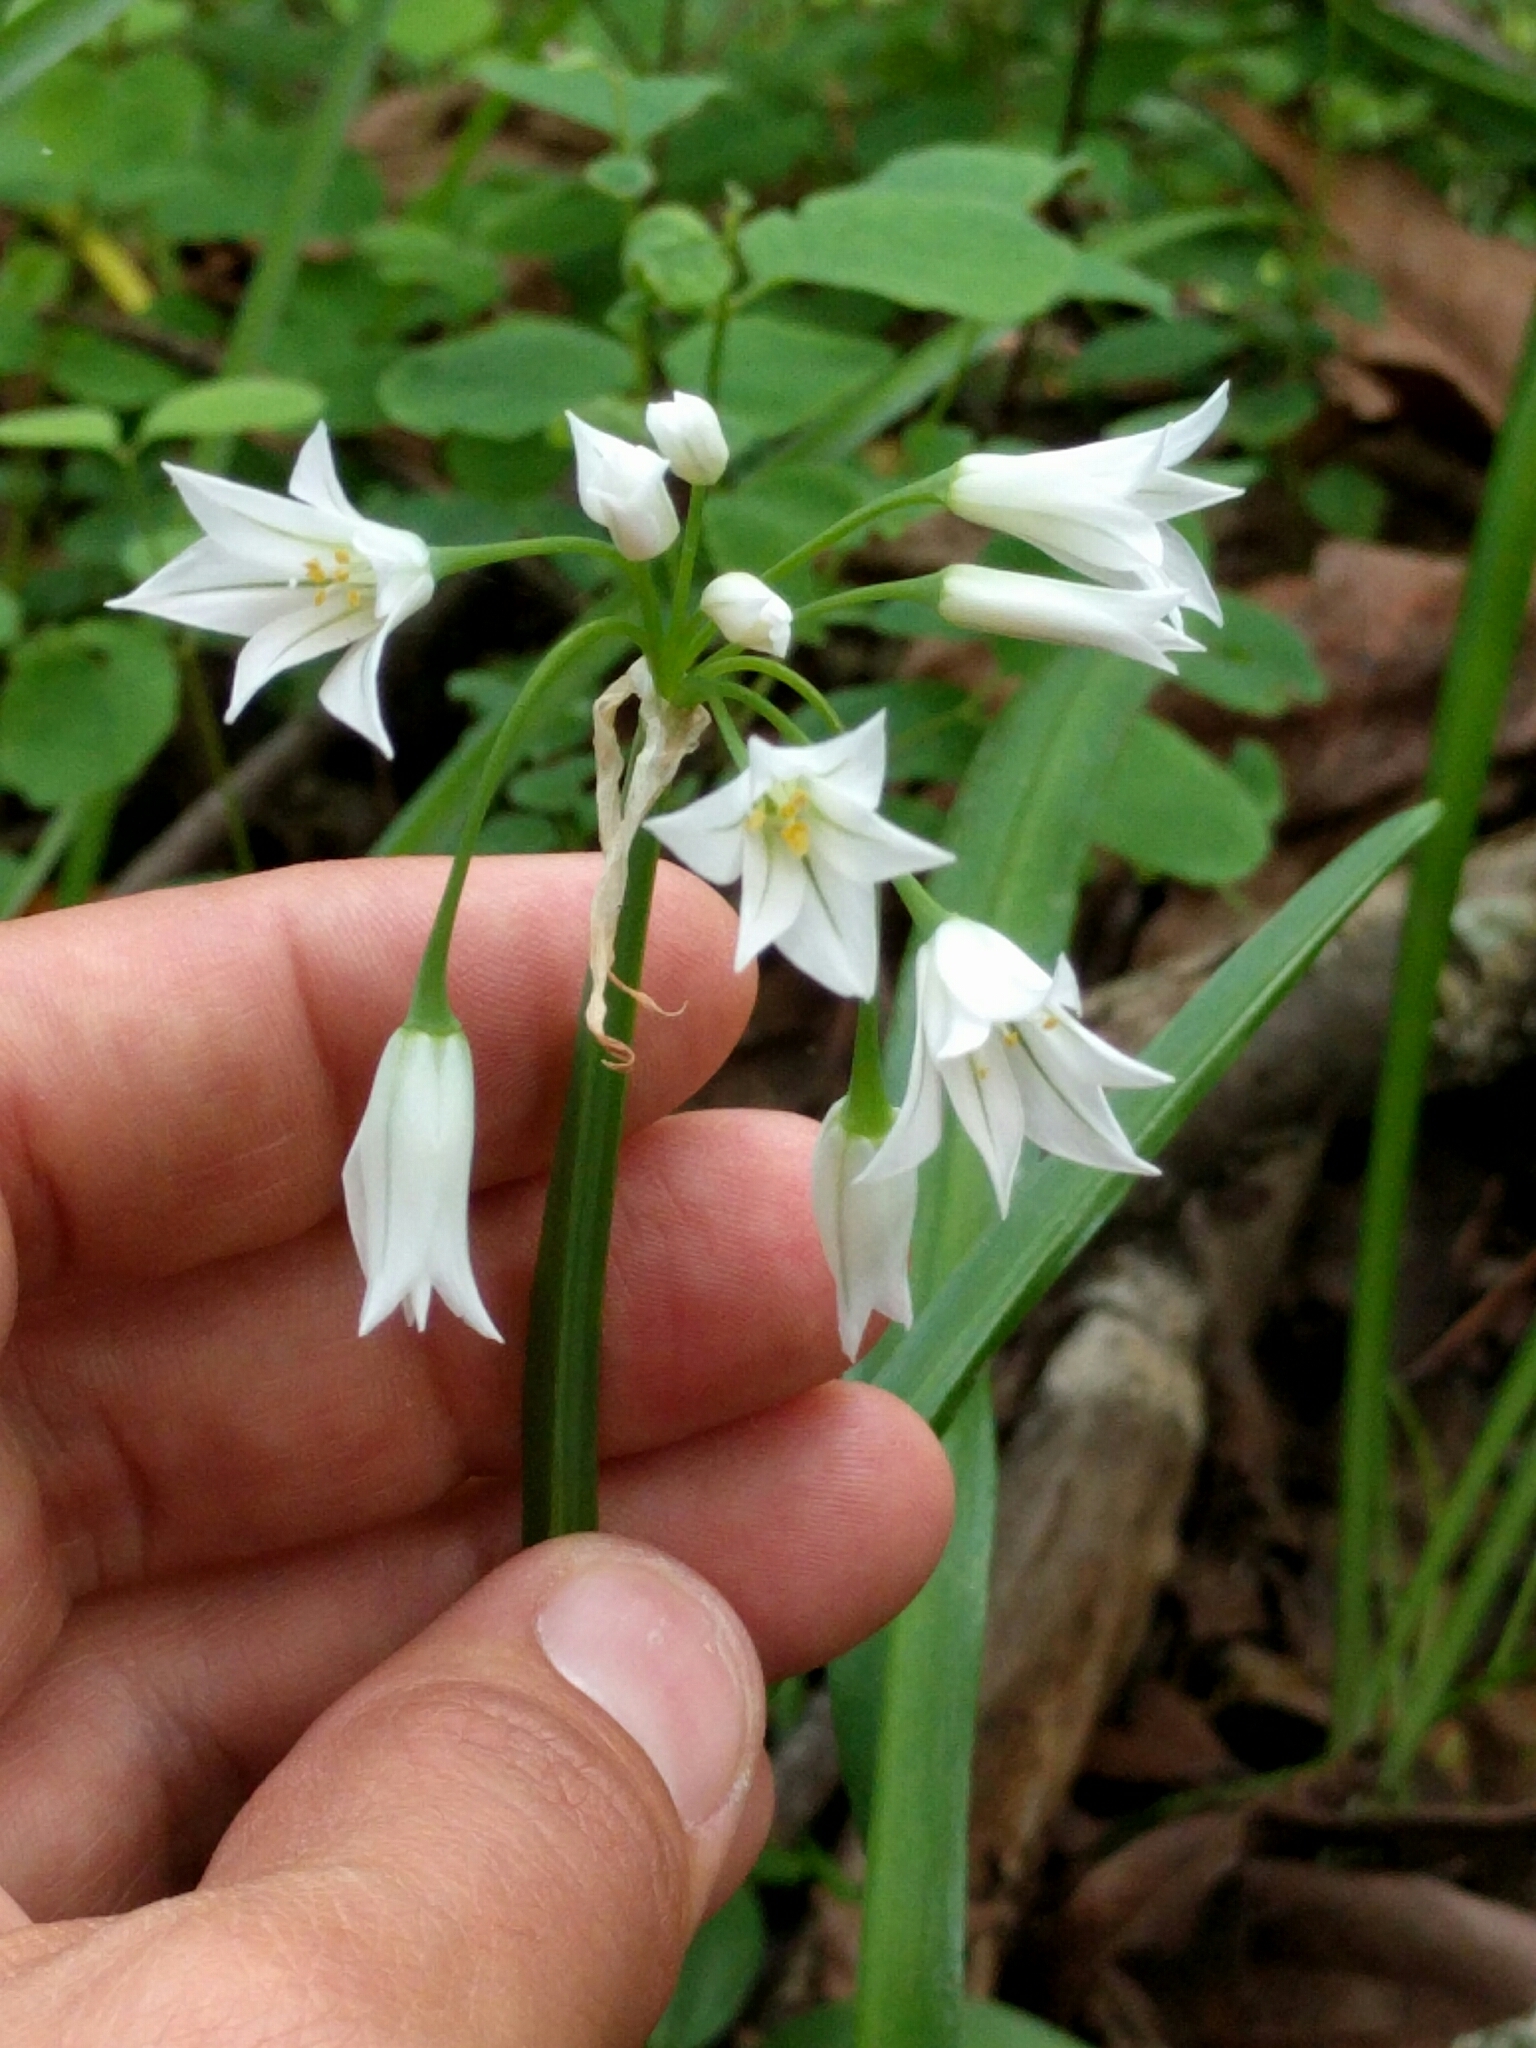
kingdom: Plantae
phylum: Tracheophyta
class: Liliopsida
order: Asparagales
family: Amaryllidaceae
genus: Allium
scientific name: Allium triquetrum
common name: Three-cornered garlic
